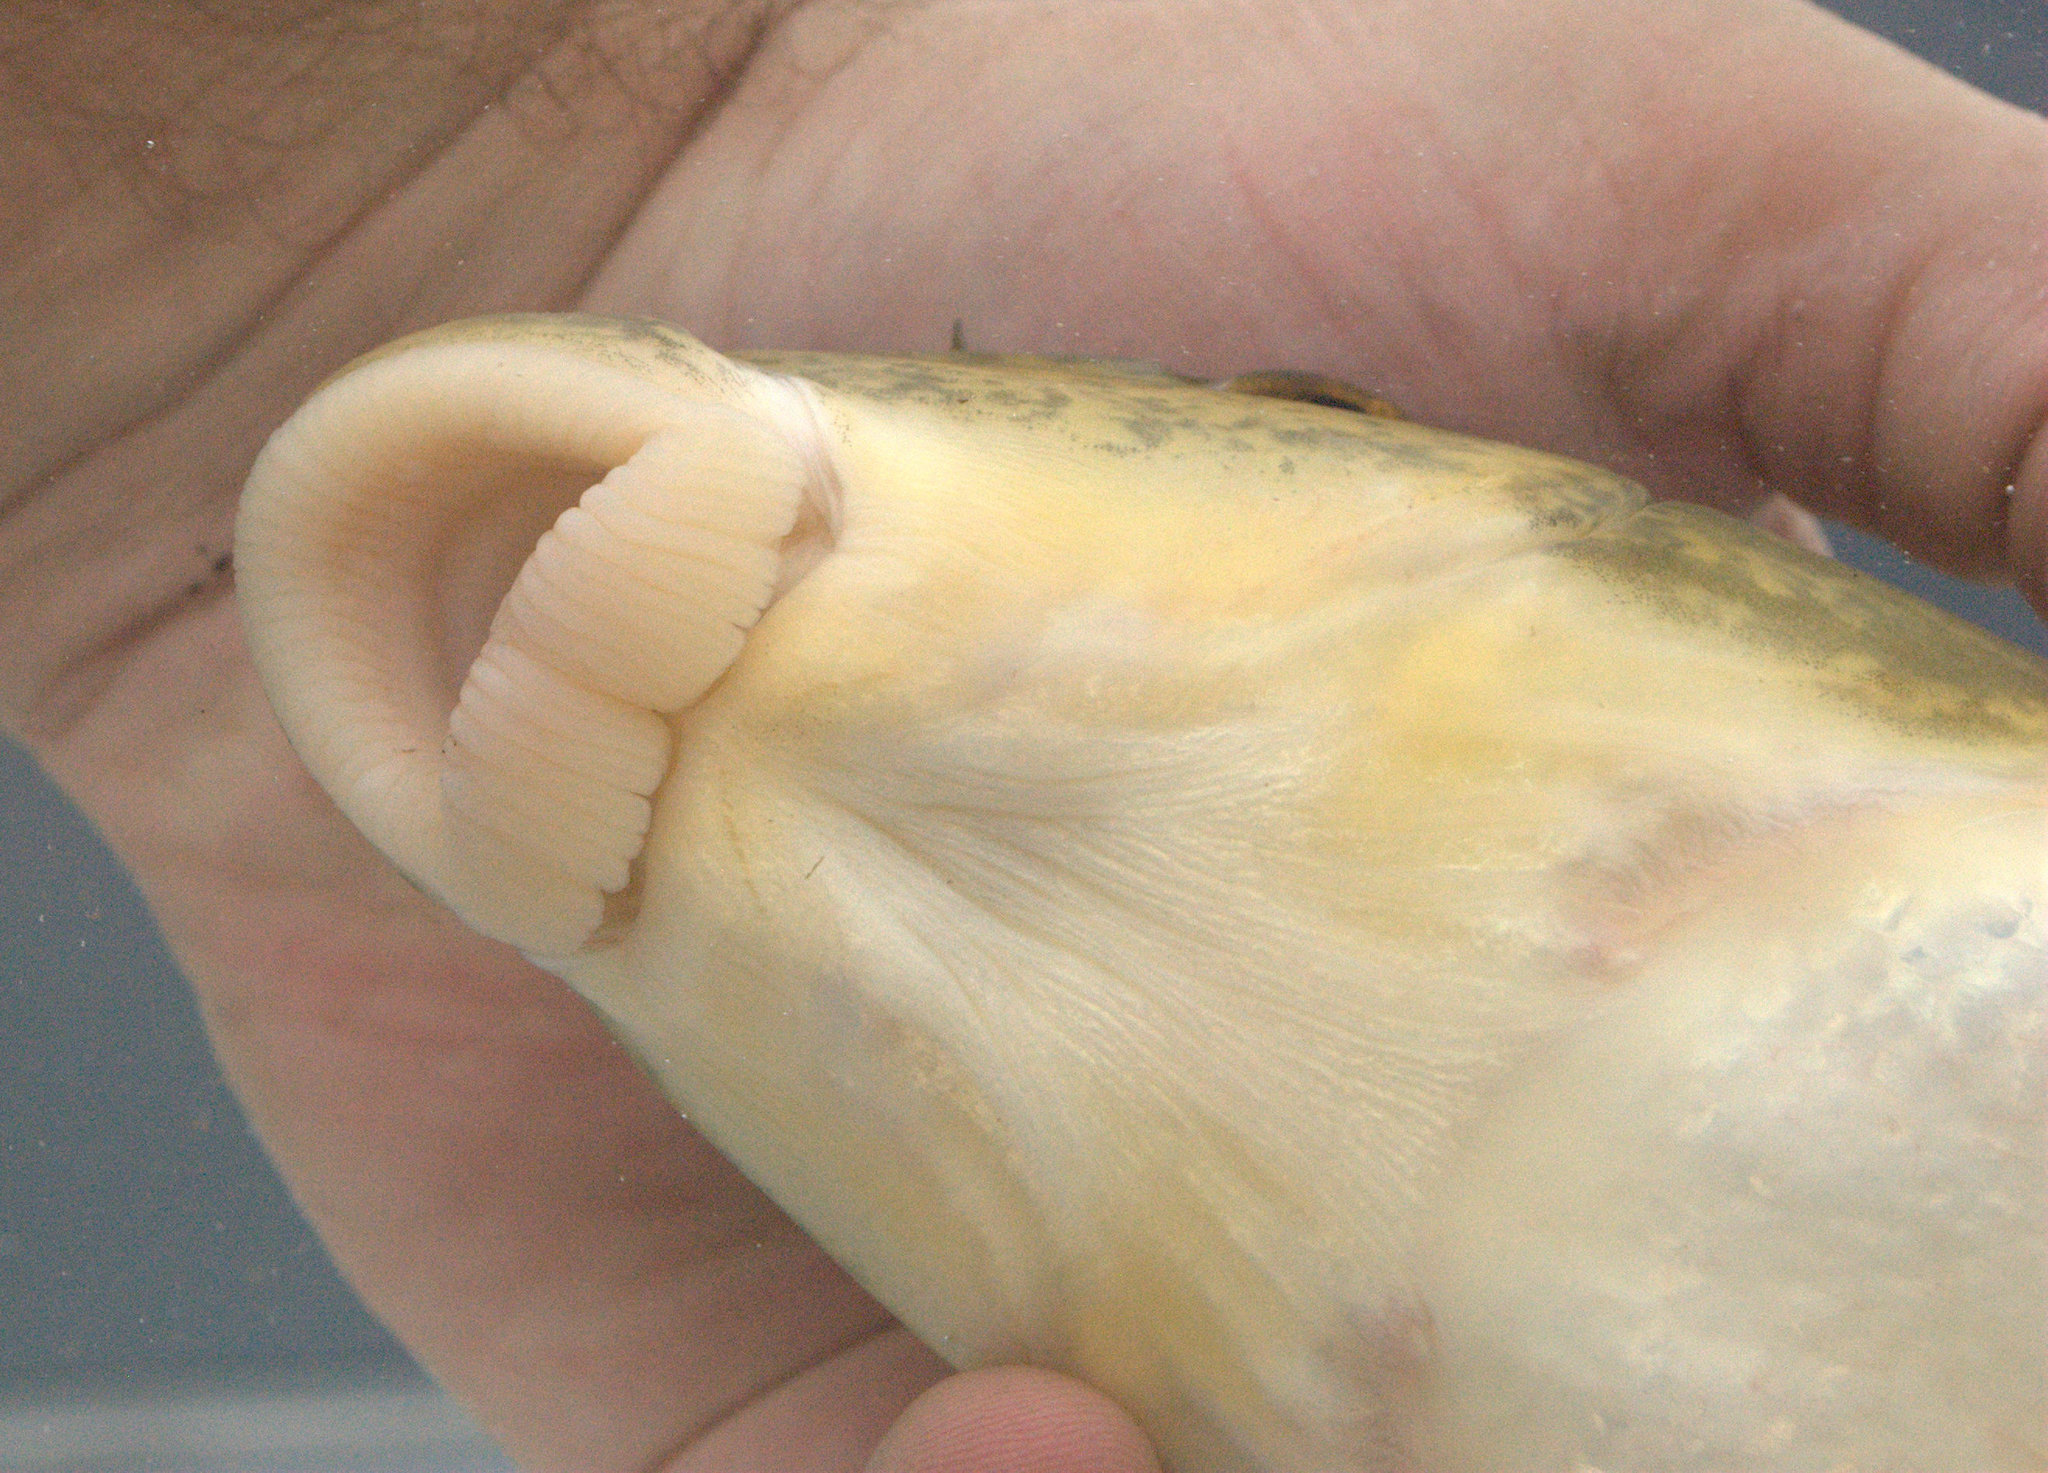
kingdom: Animalia
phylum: Chordata
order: Cypriniformes
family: Catostomidae
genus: Moxostoma
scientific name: Moxostoma valenciennesi
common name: Greater redhorse
